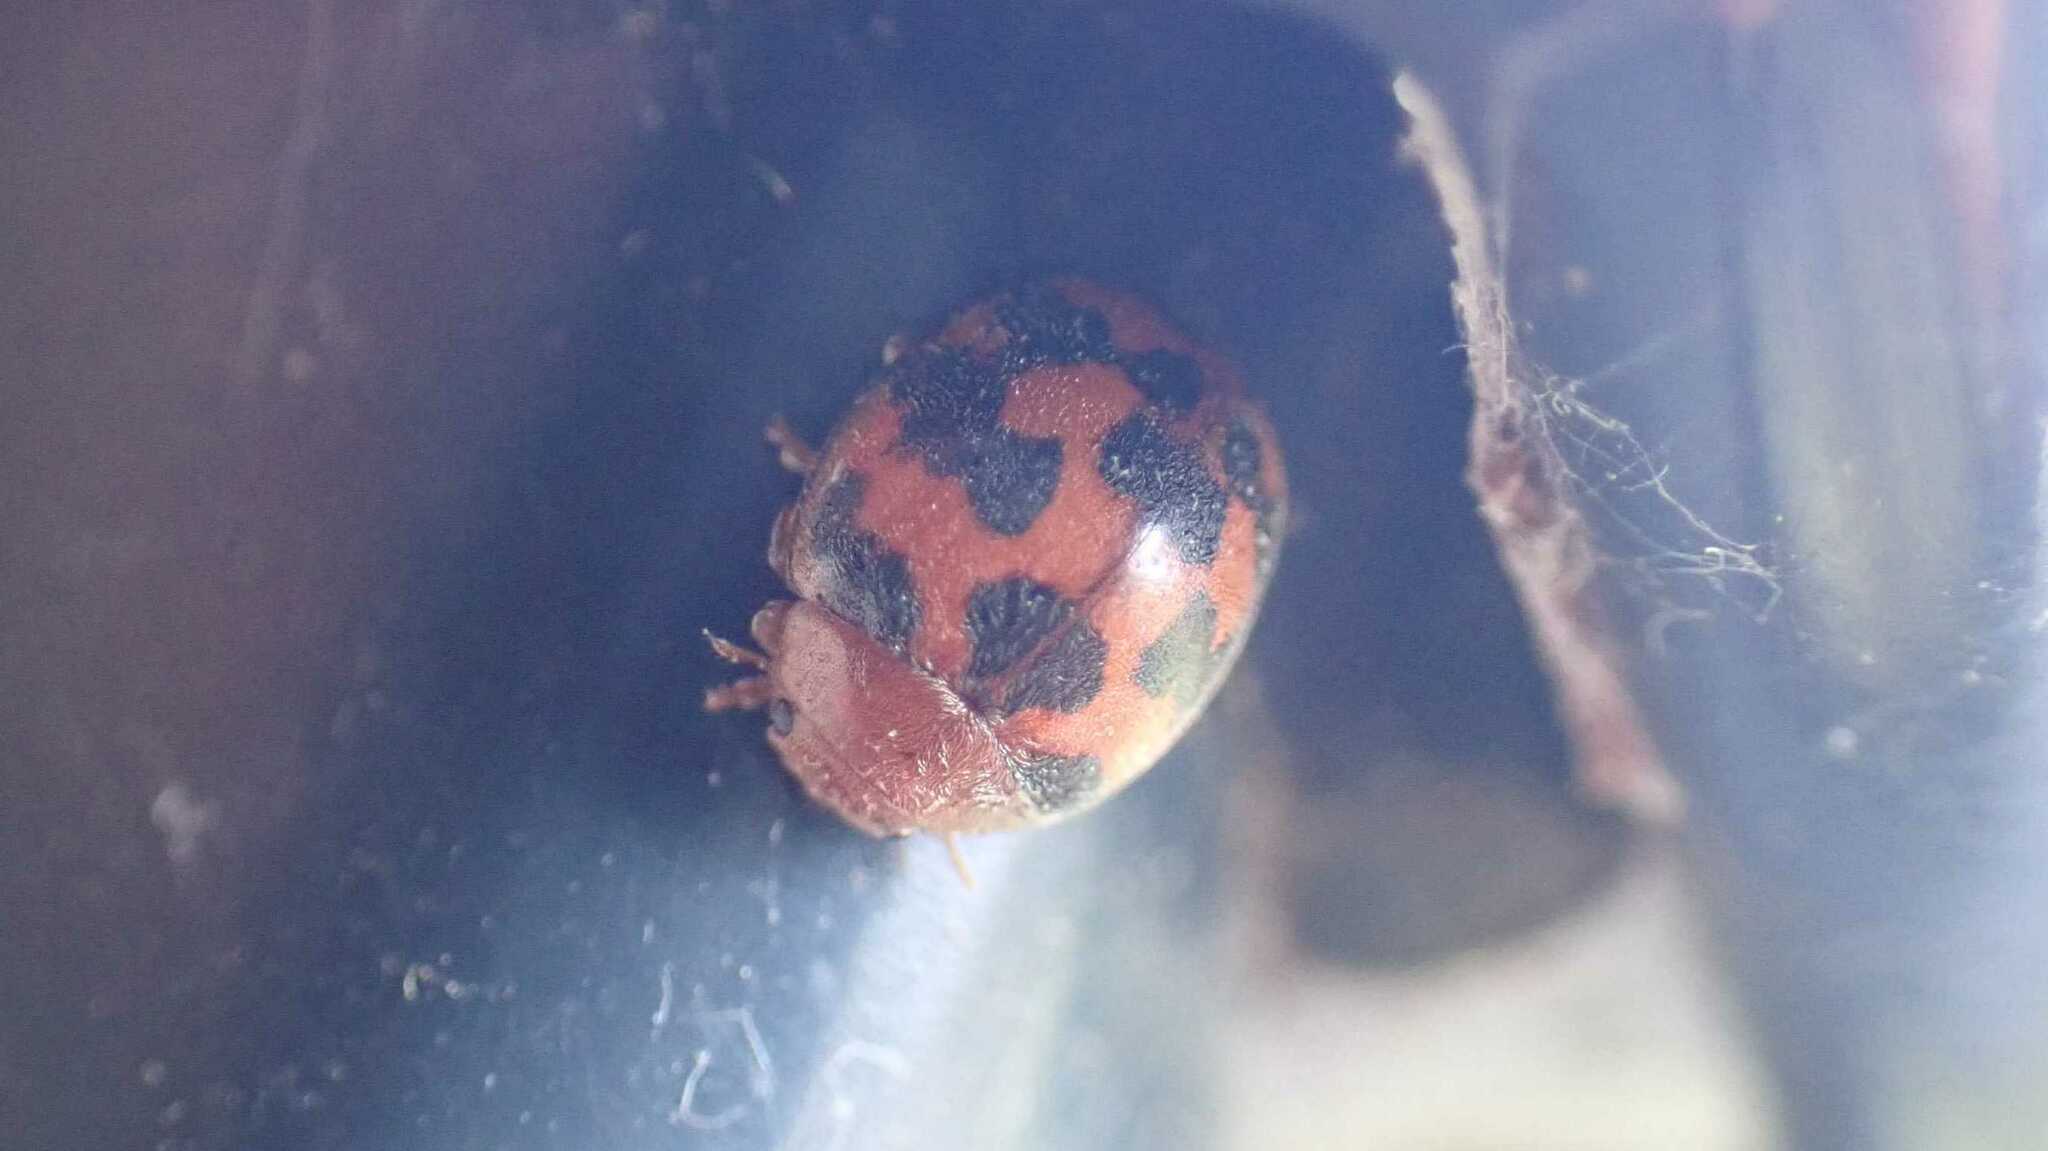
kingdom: Animalia
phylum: Arthropoda
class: Insecta
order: Coleoptera
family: Coccinellidae
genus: Subcoccinella
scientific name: Subcoccinella vigintiquatuorpunctata
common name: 24-spot ladybird
